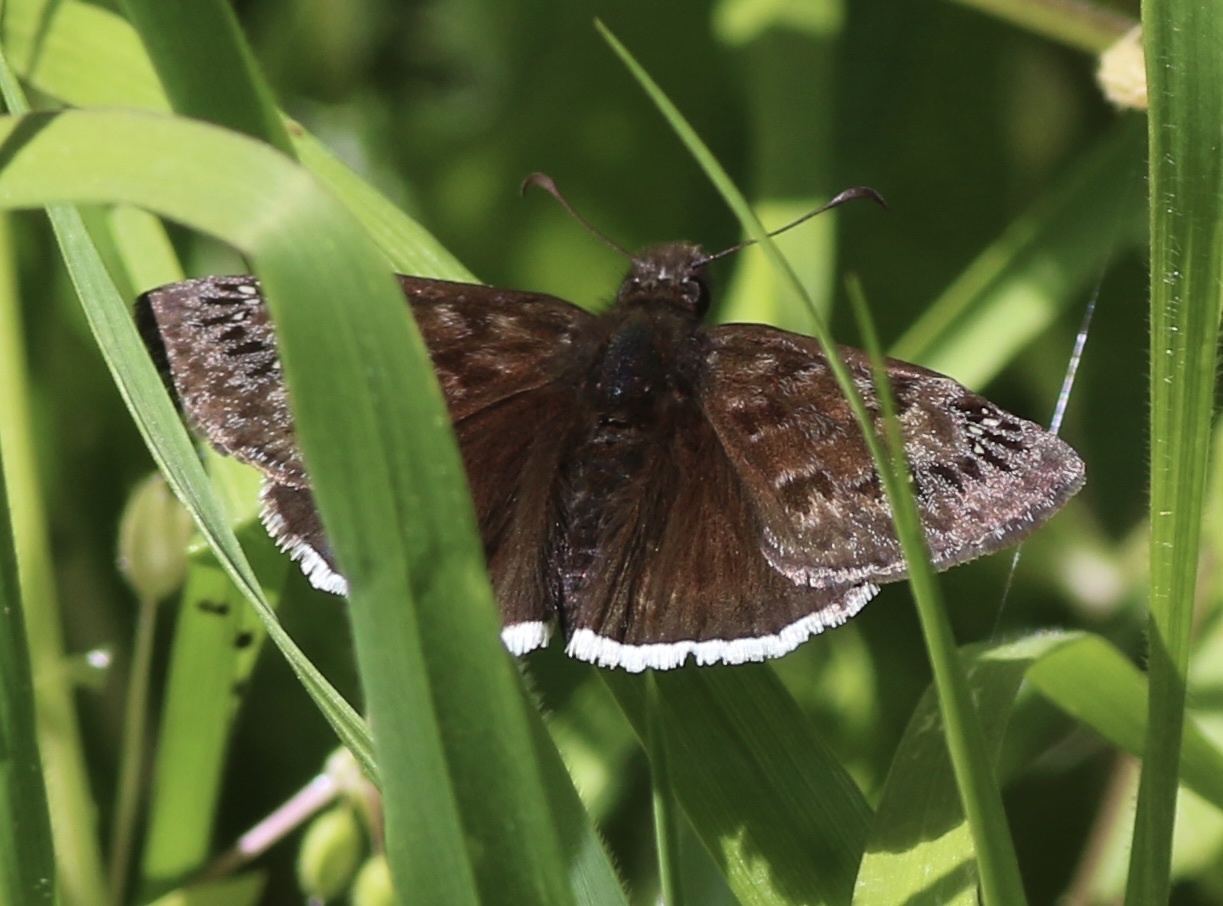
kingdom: Animalia
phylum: Arthropoda
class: Insecta
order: Lepidoptera
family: Hesperiidae
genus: Erynnis
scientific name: Erynnis tristis
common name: Mournful duskywing
